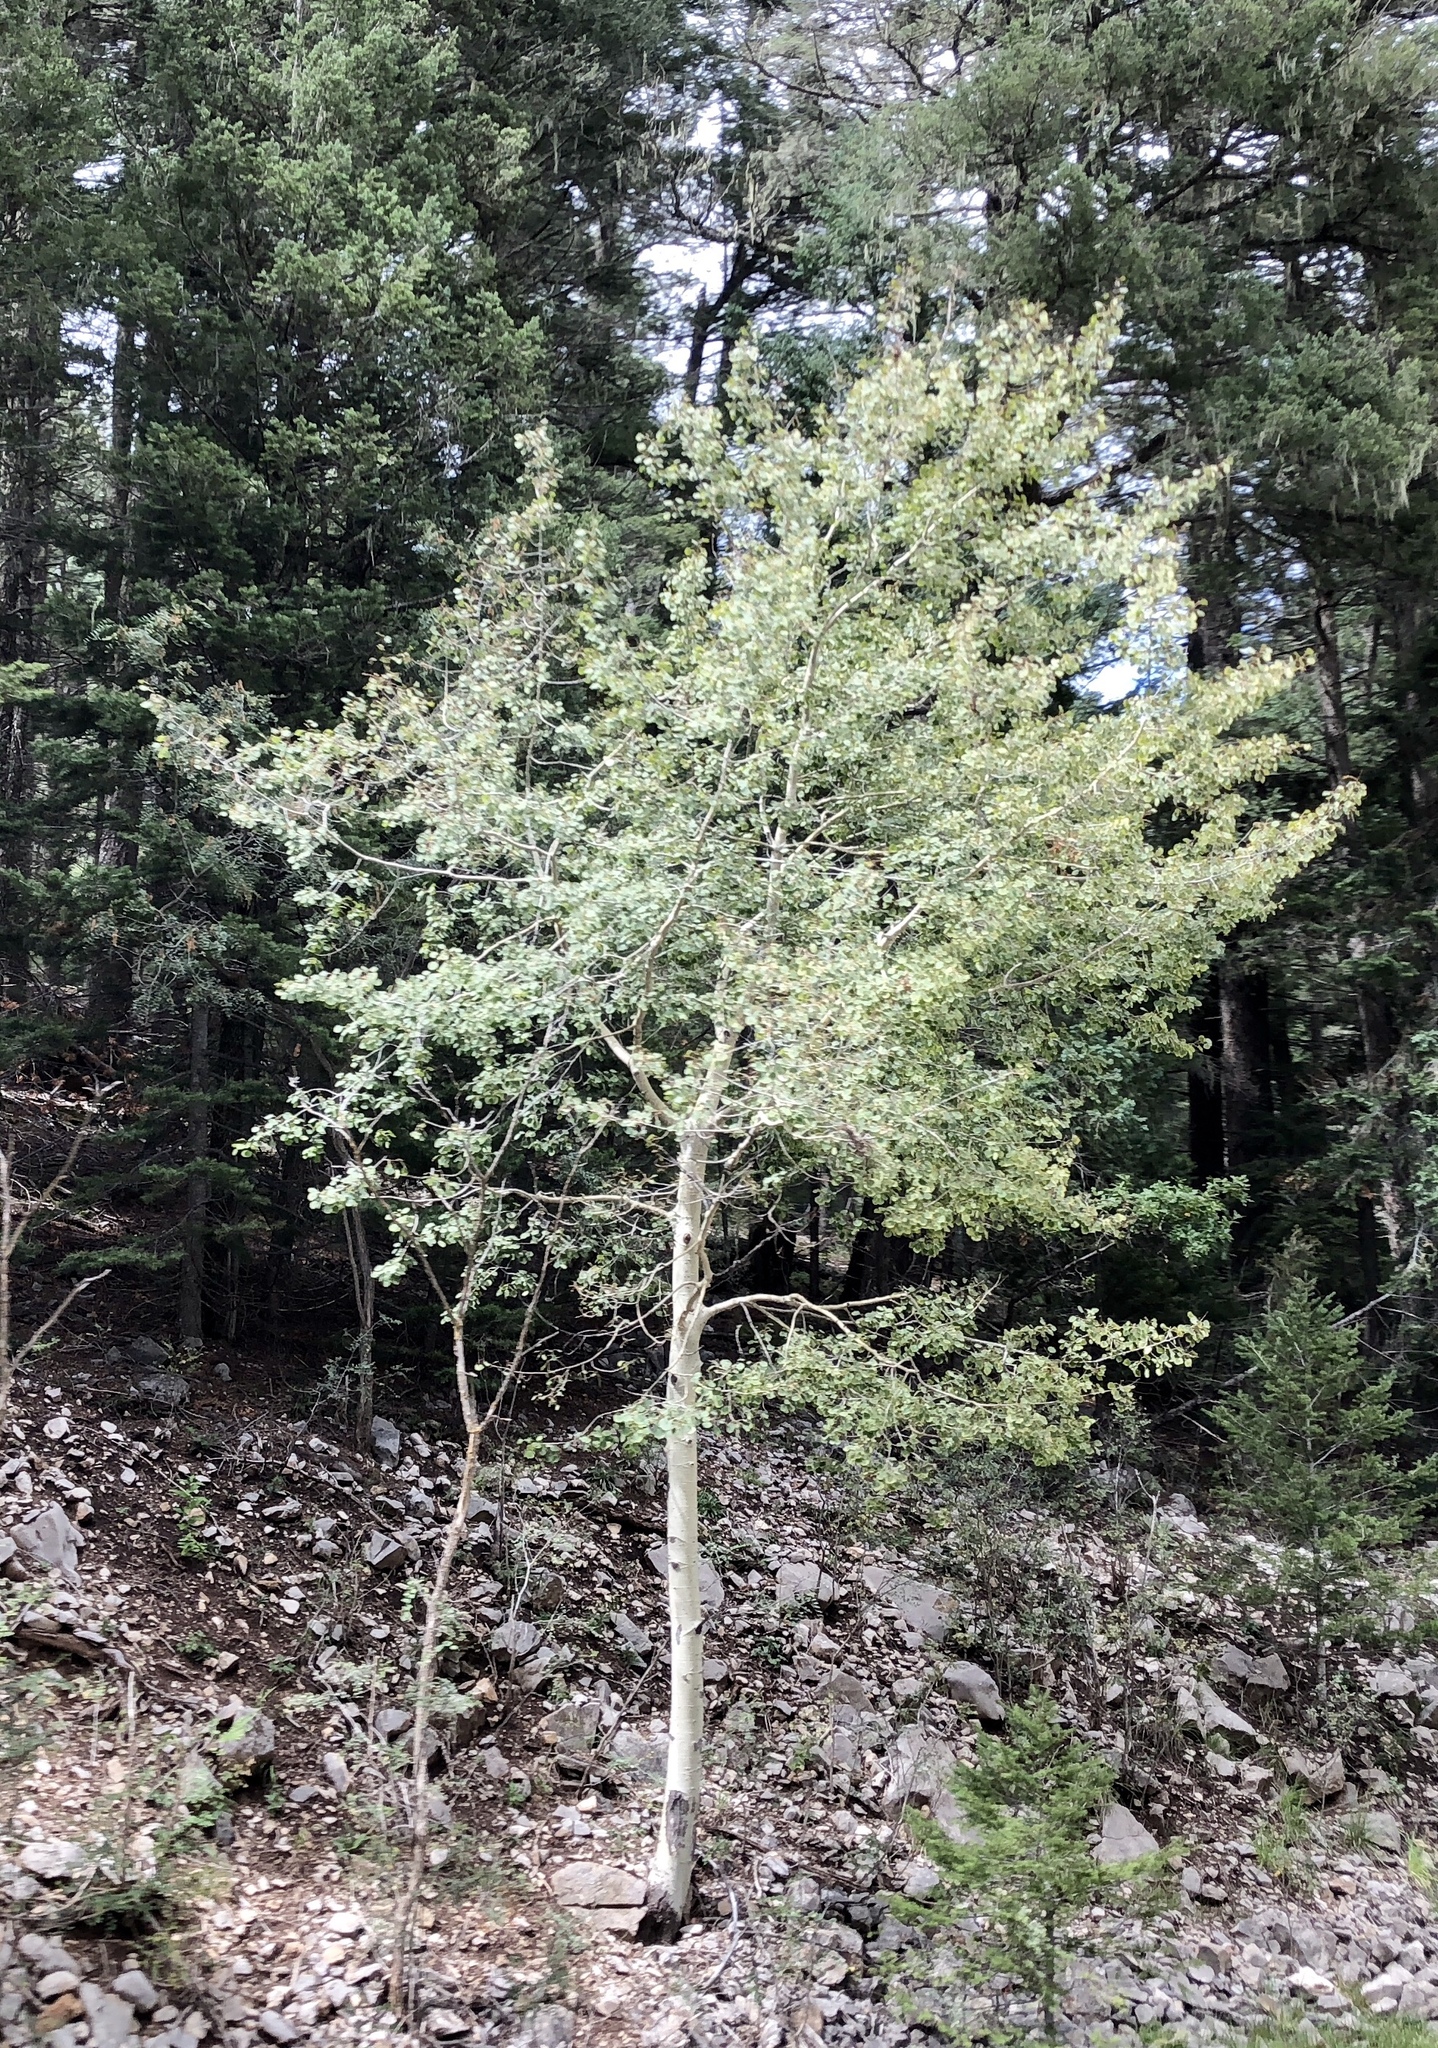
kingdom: Plantae
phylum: Tracheophyta
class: Magnoliopsida
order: Malpighiales
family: Salicaceae
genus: Populus
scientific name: Populus tremuloides
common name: Quaking aspen
